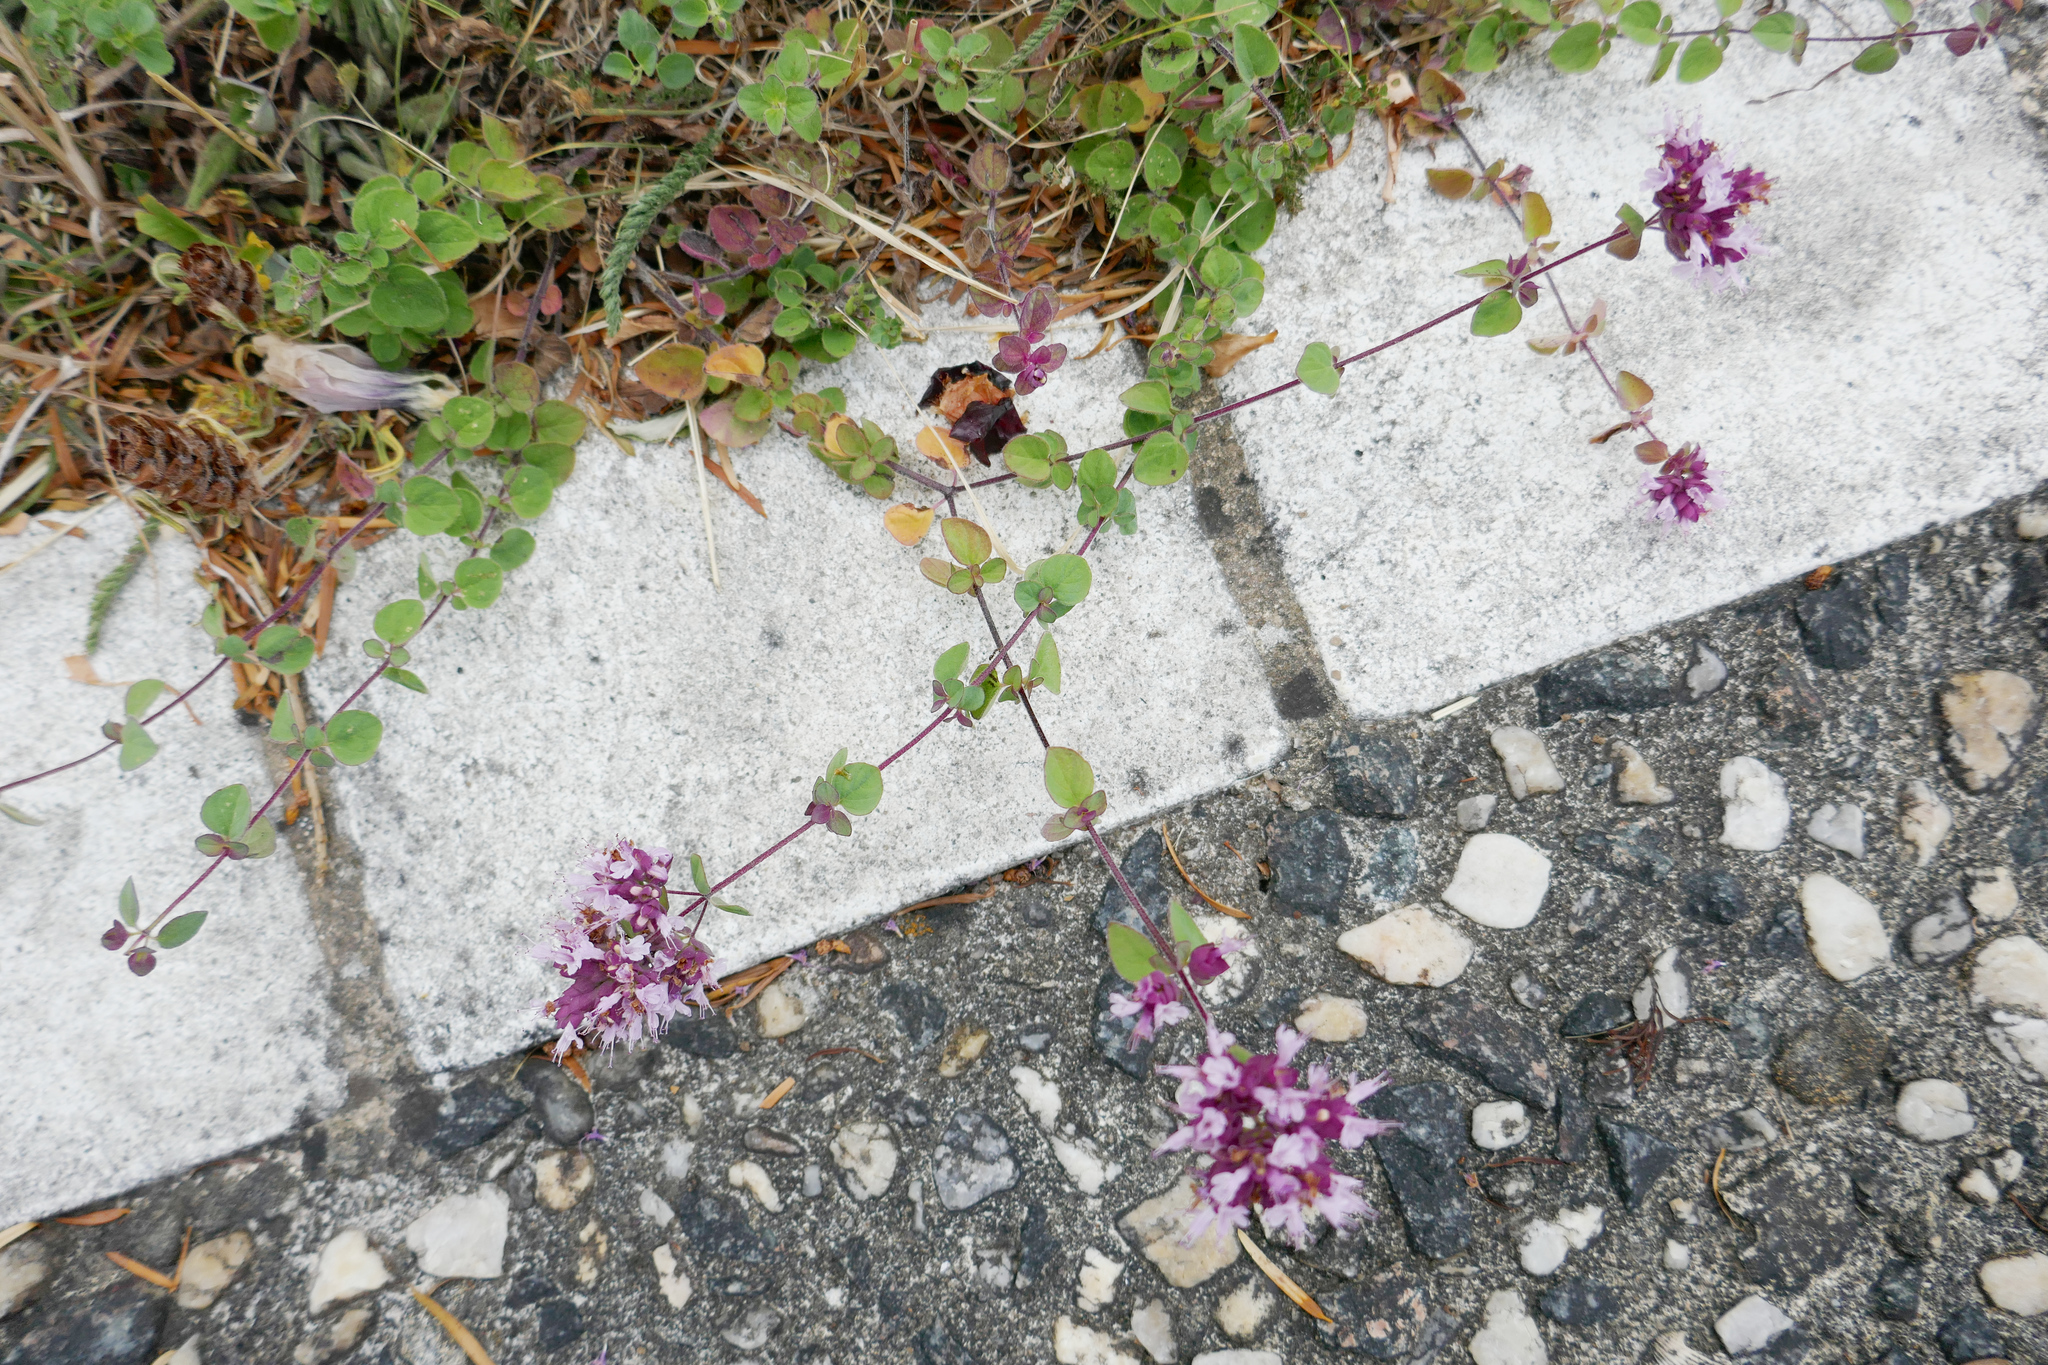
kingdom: Plantae
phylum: Tracheophyta
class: Magnoliopsida
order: Lamiales
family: Lamiaceae
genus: Origanum
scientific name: Origanum vulgare
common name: Wild marjoram
